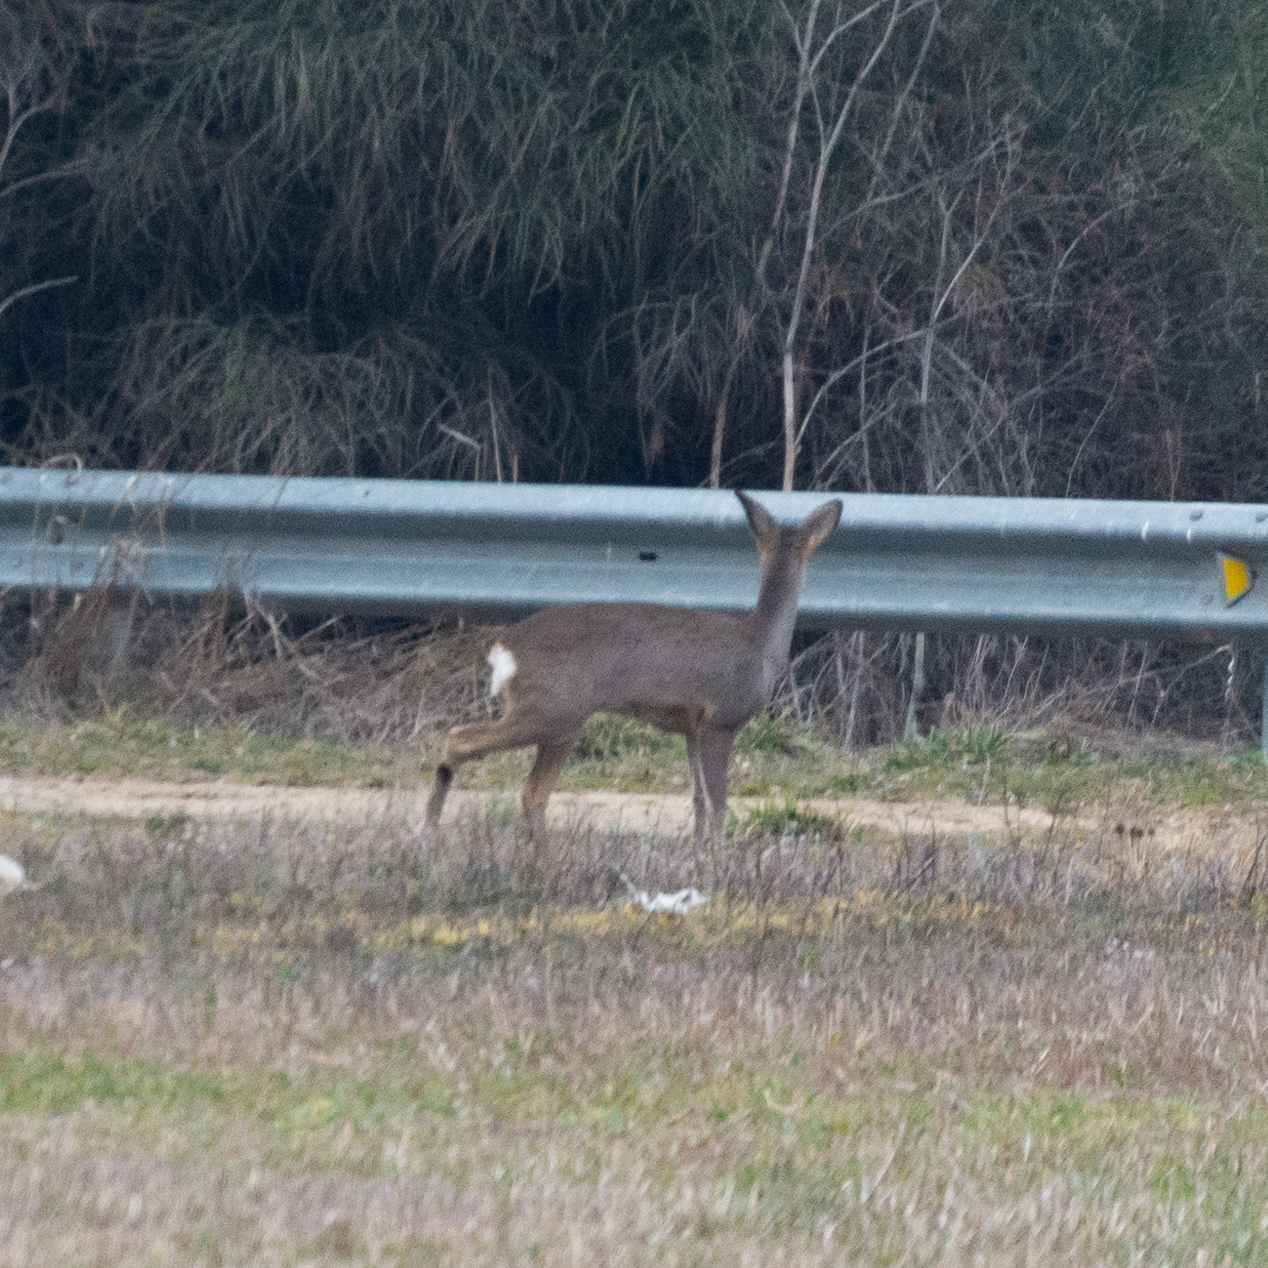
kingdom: Animalia
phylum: Chordata
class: Mammalia
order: Artiodactyla
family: Cervidae
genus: Capreolus
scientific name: Capreolus capreolus
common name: Western roe deer
